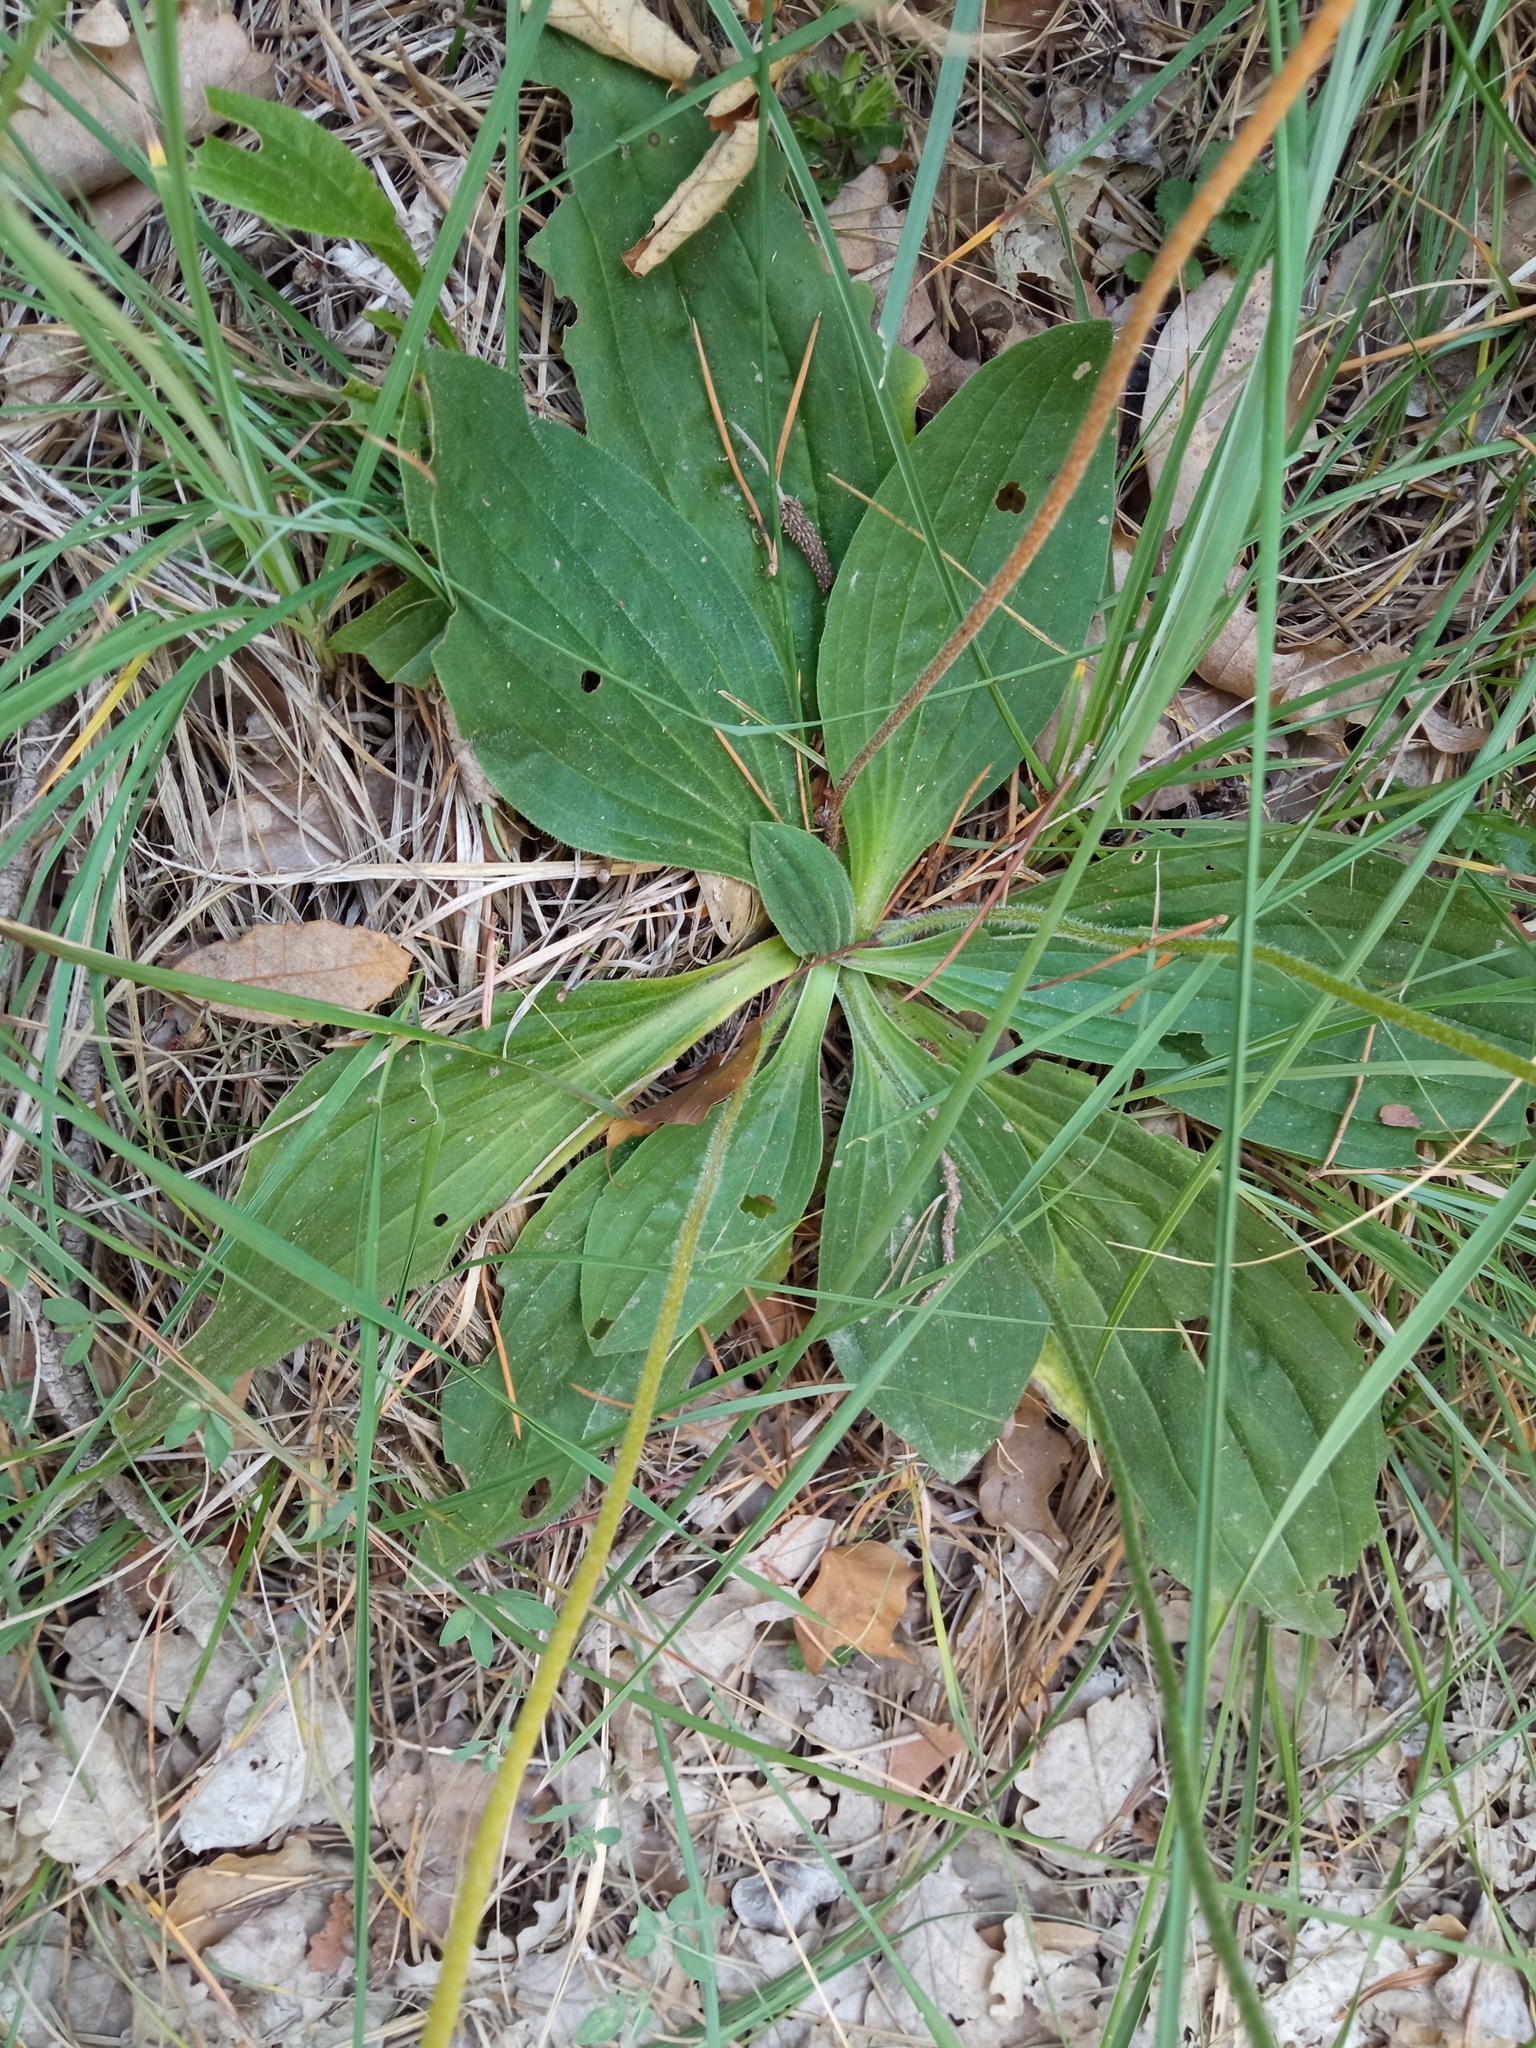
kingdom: Plantae
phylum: Tracheophyta
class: Magnoliopsida
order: Lamiales
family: Plantaginaceae
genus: Plantago
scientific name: Plantago media
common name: Hoary plantain
